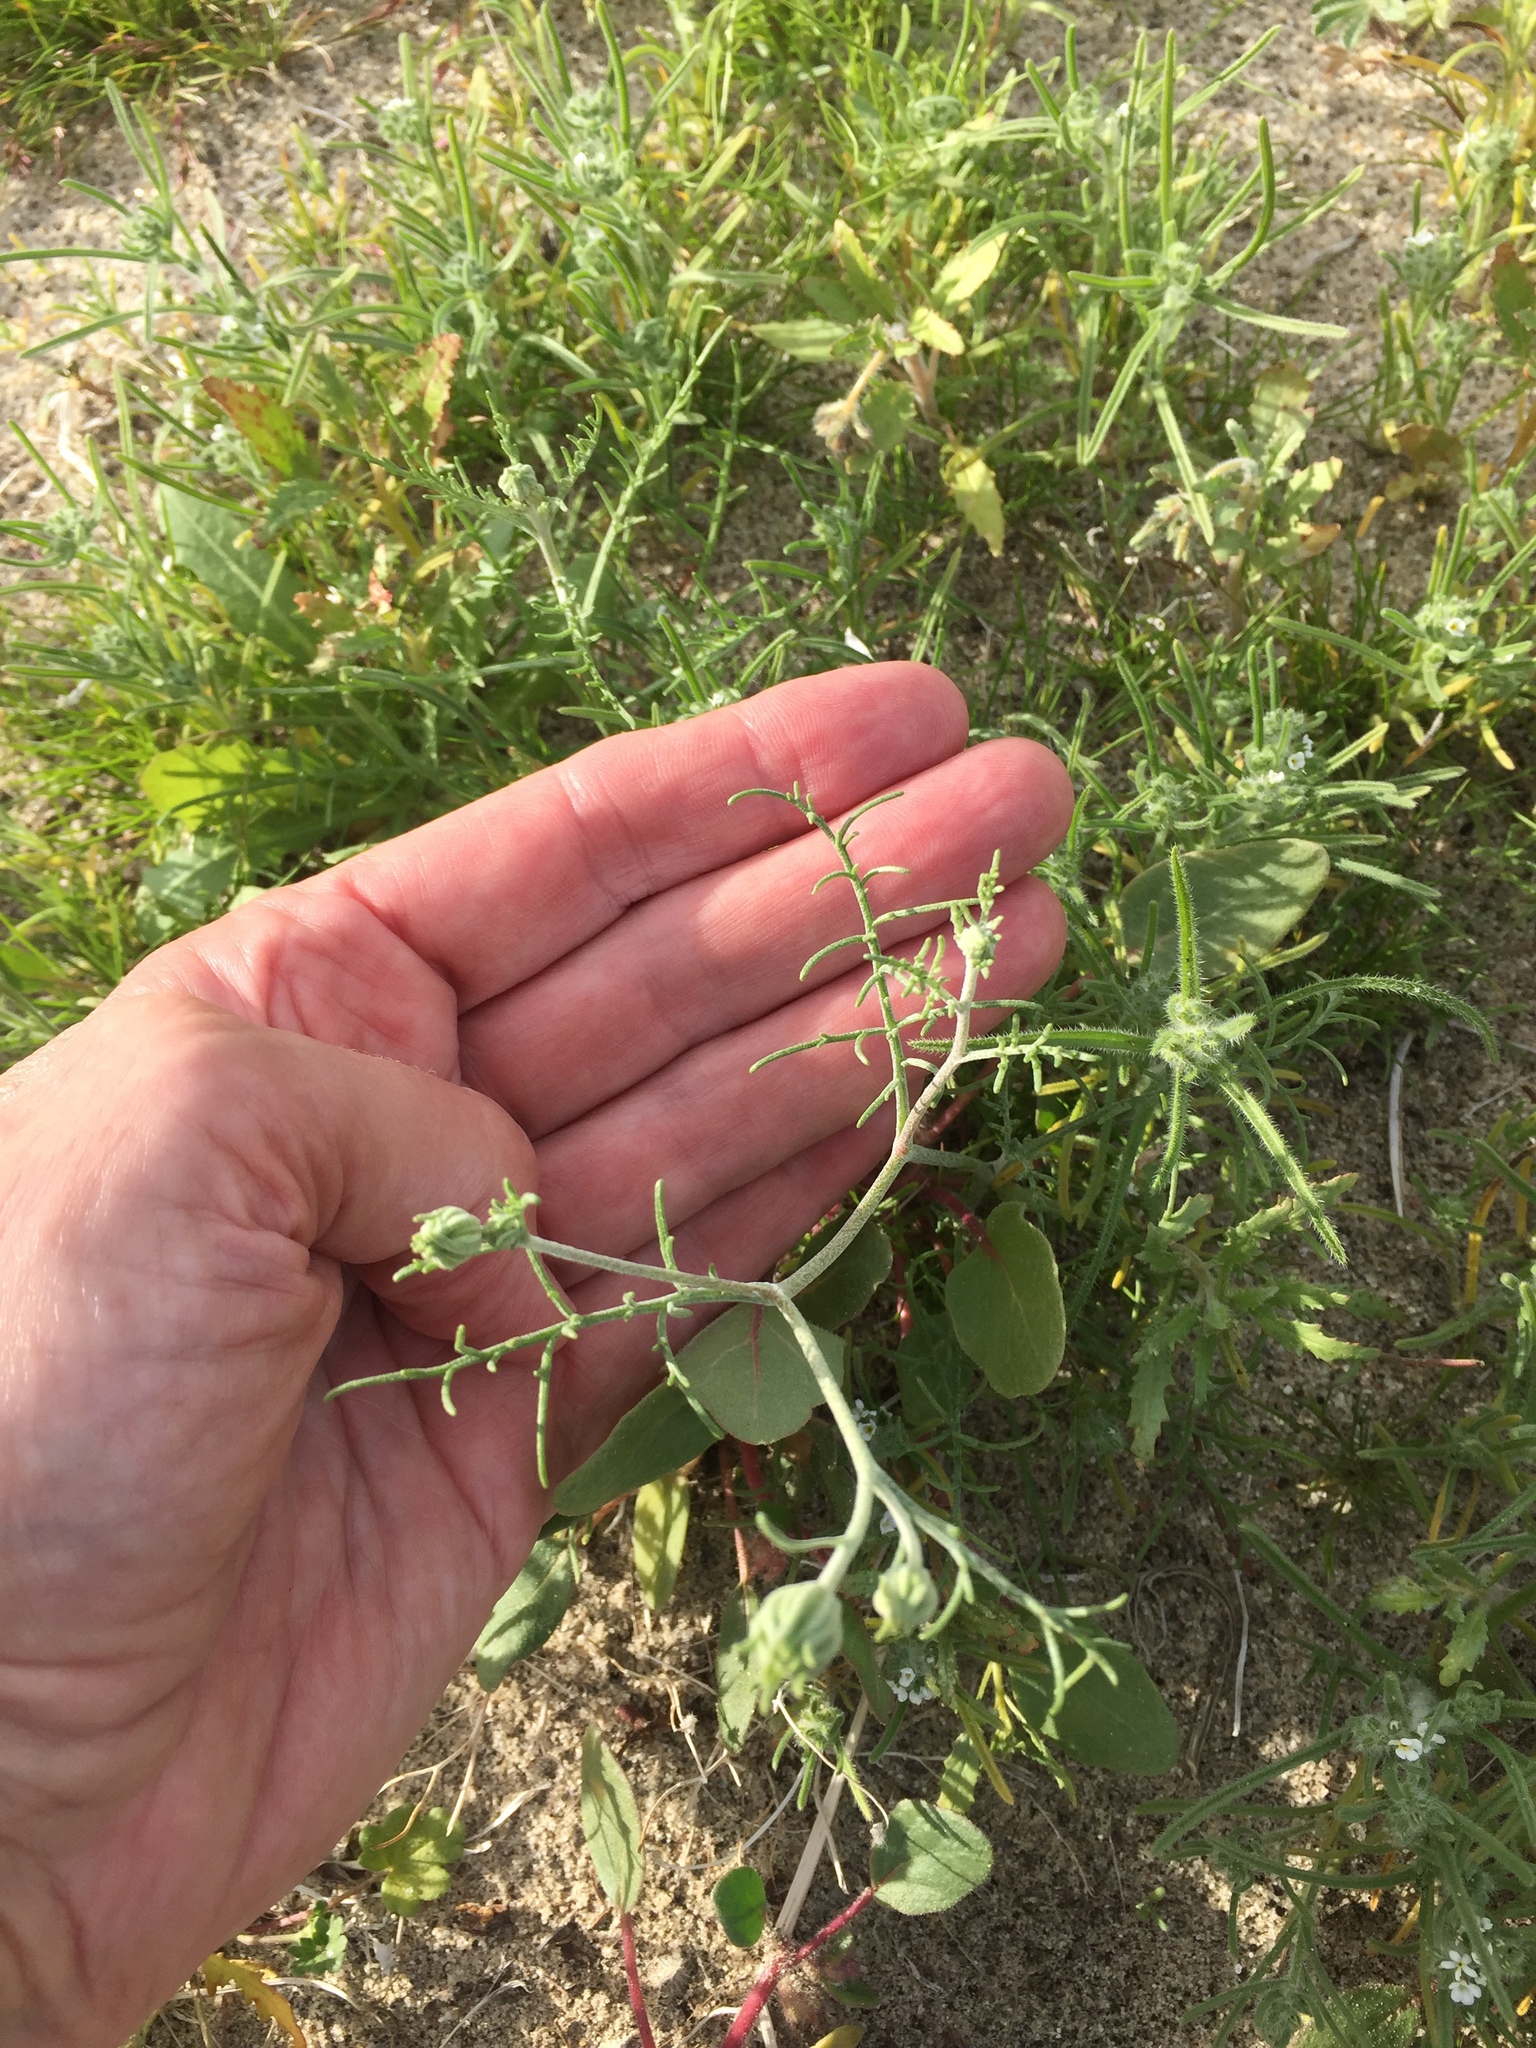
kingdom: Plantae
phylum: Tracheophyta
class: Magnoliopsida
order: Asterales
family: Asteraceae
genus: Chaenactis
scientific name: Chaenactis stevioides
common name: Desert pincushion
